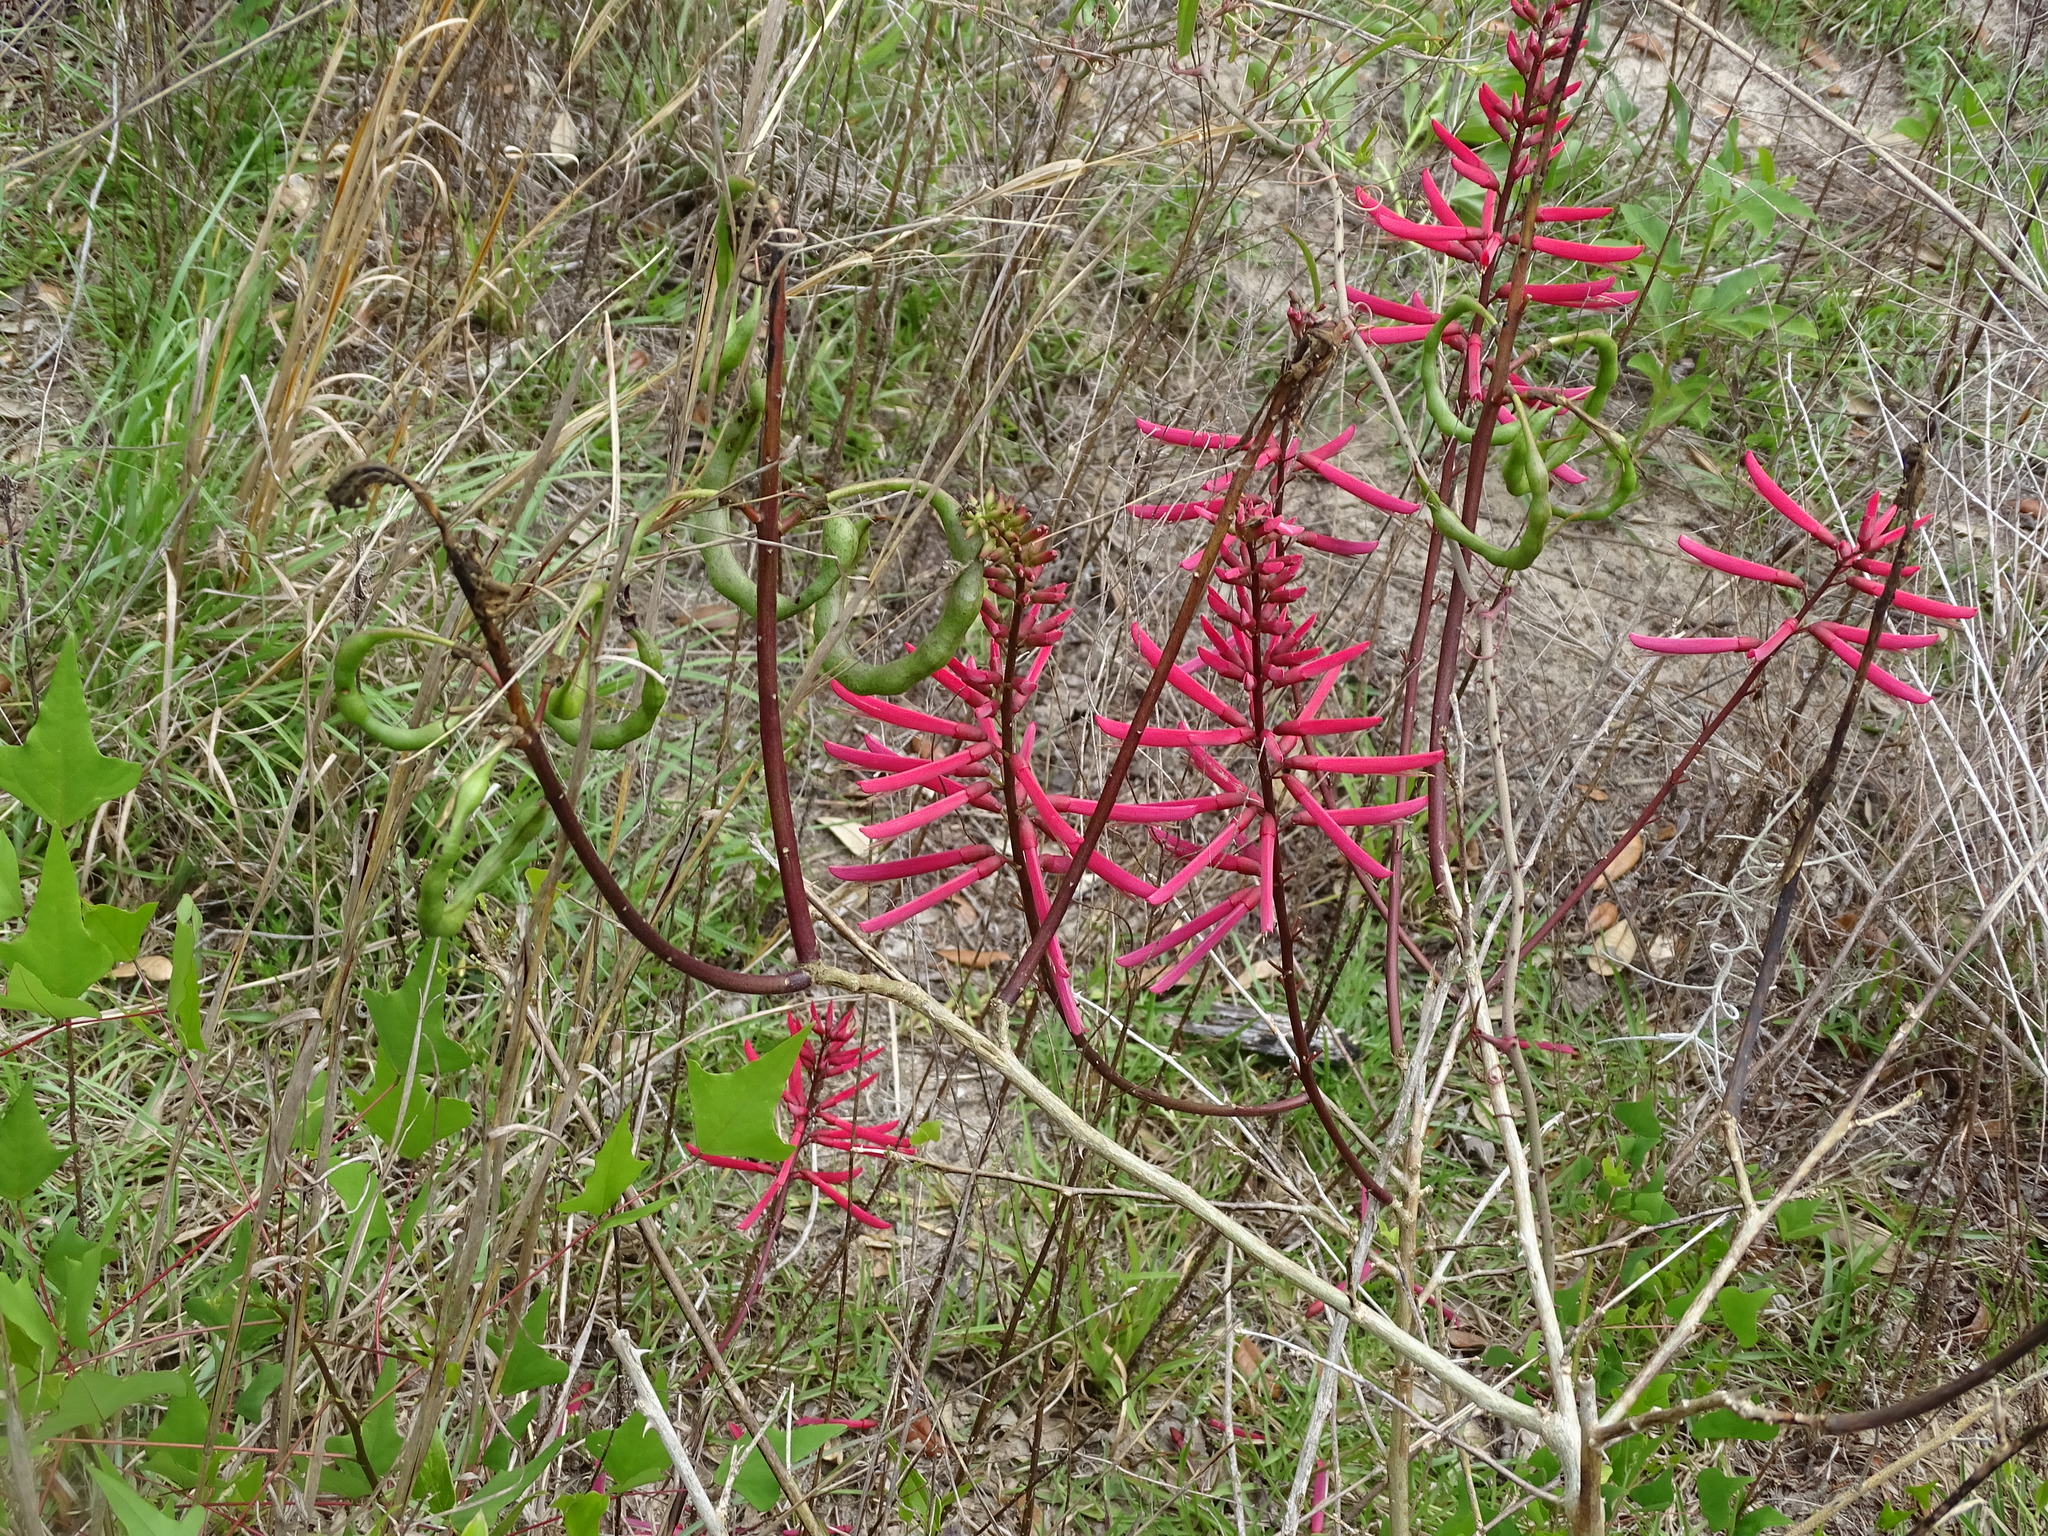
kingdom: Plantae
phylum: Tracheophyta
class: Magnoliopsida
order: Fabales
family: Fabaceae
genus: Erythrina
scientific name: Erythrina herbacea
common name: Coral-bean
